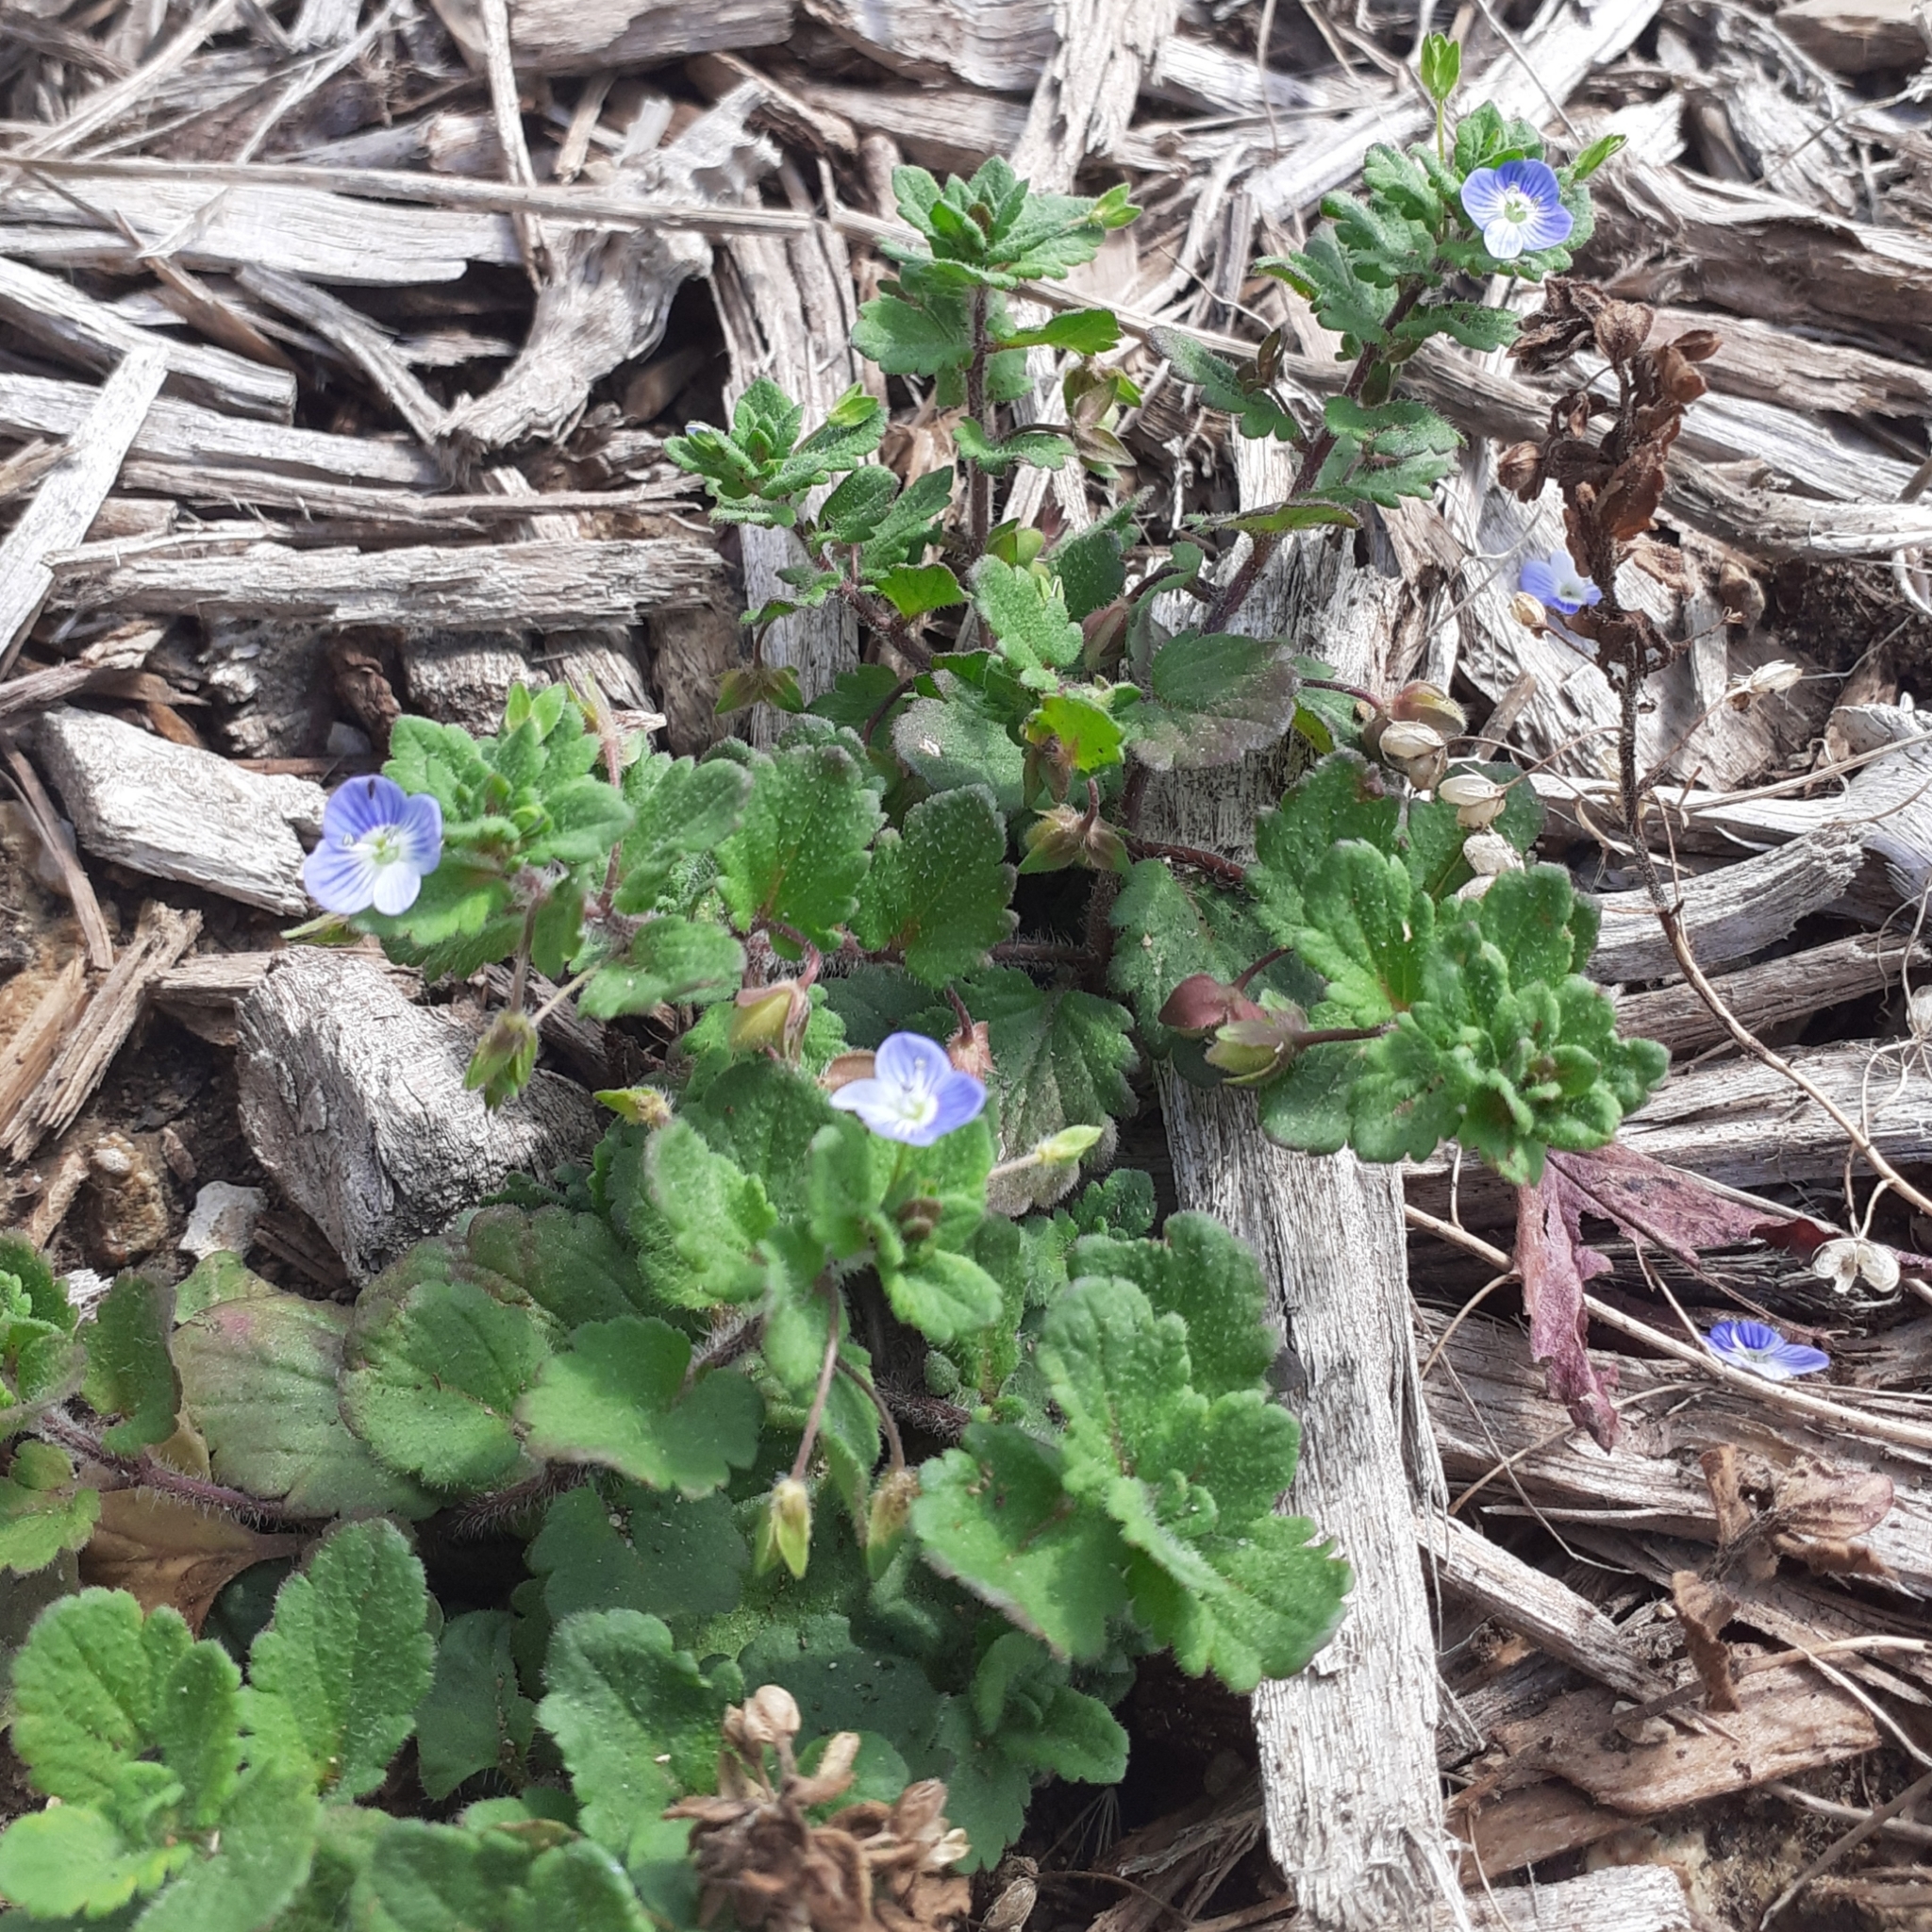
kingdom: Plantae
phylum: Tracheophyta
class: Magnoliopsida
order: Lamiales
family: Plantaginaceae
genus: Veronica
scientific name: Veronica persica
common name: Common field-speedwell
